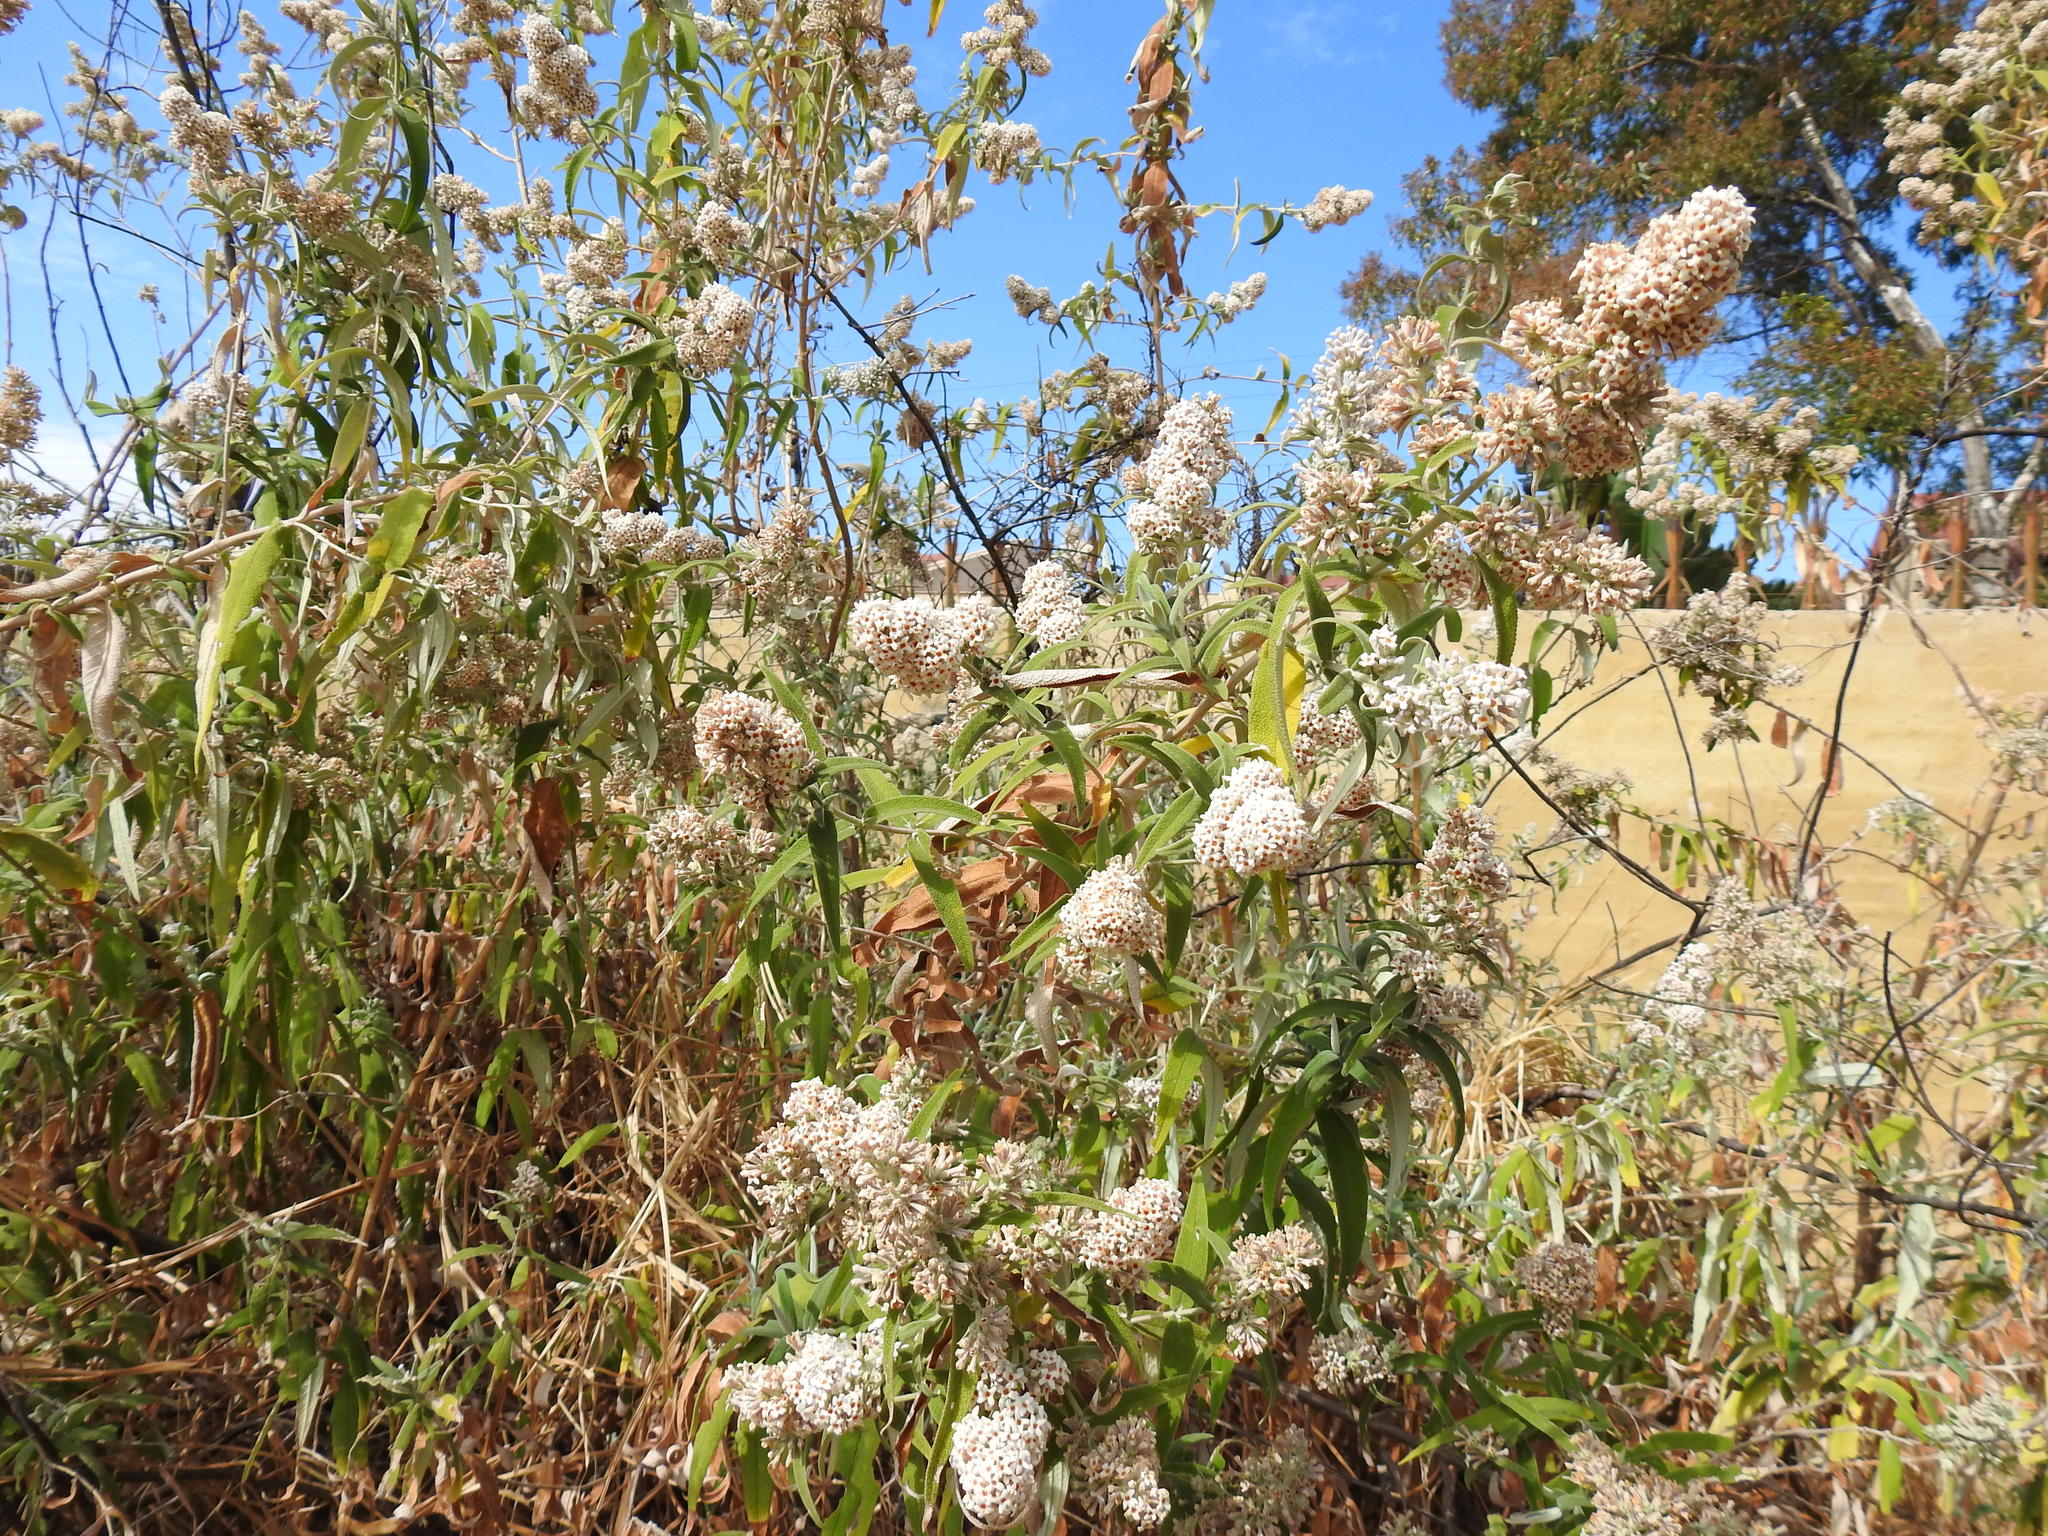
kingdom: Plantae
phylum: Tracheophyta
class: Magnoliopsida
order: Lamiales
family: Scrophulariaceae
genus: Buddleja
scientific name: Buddleja salviifolia
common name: Sagewood
